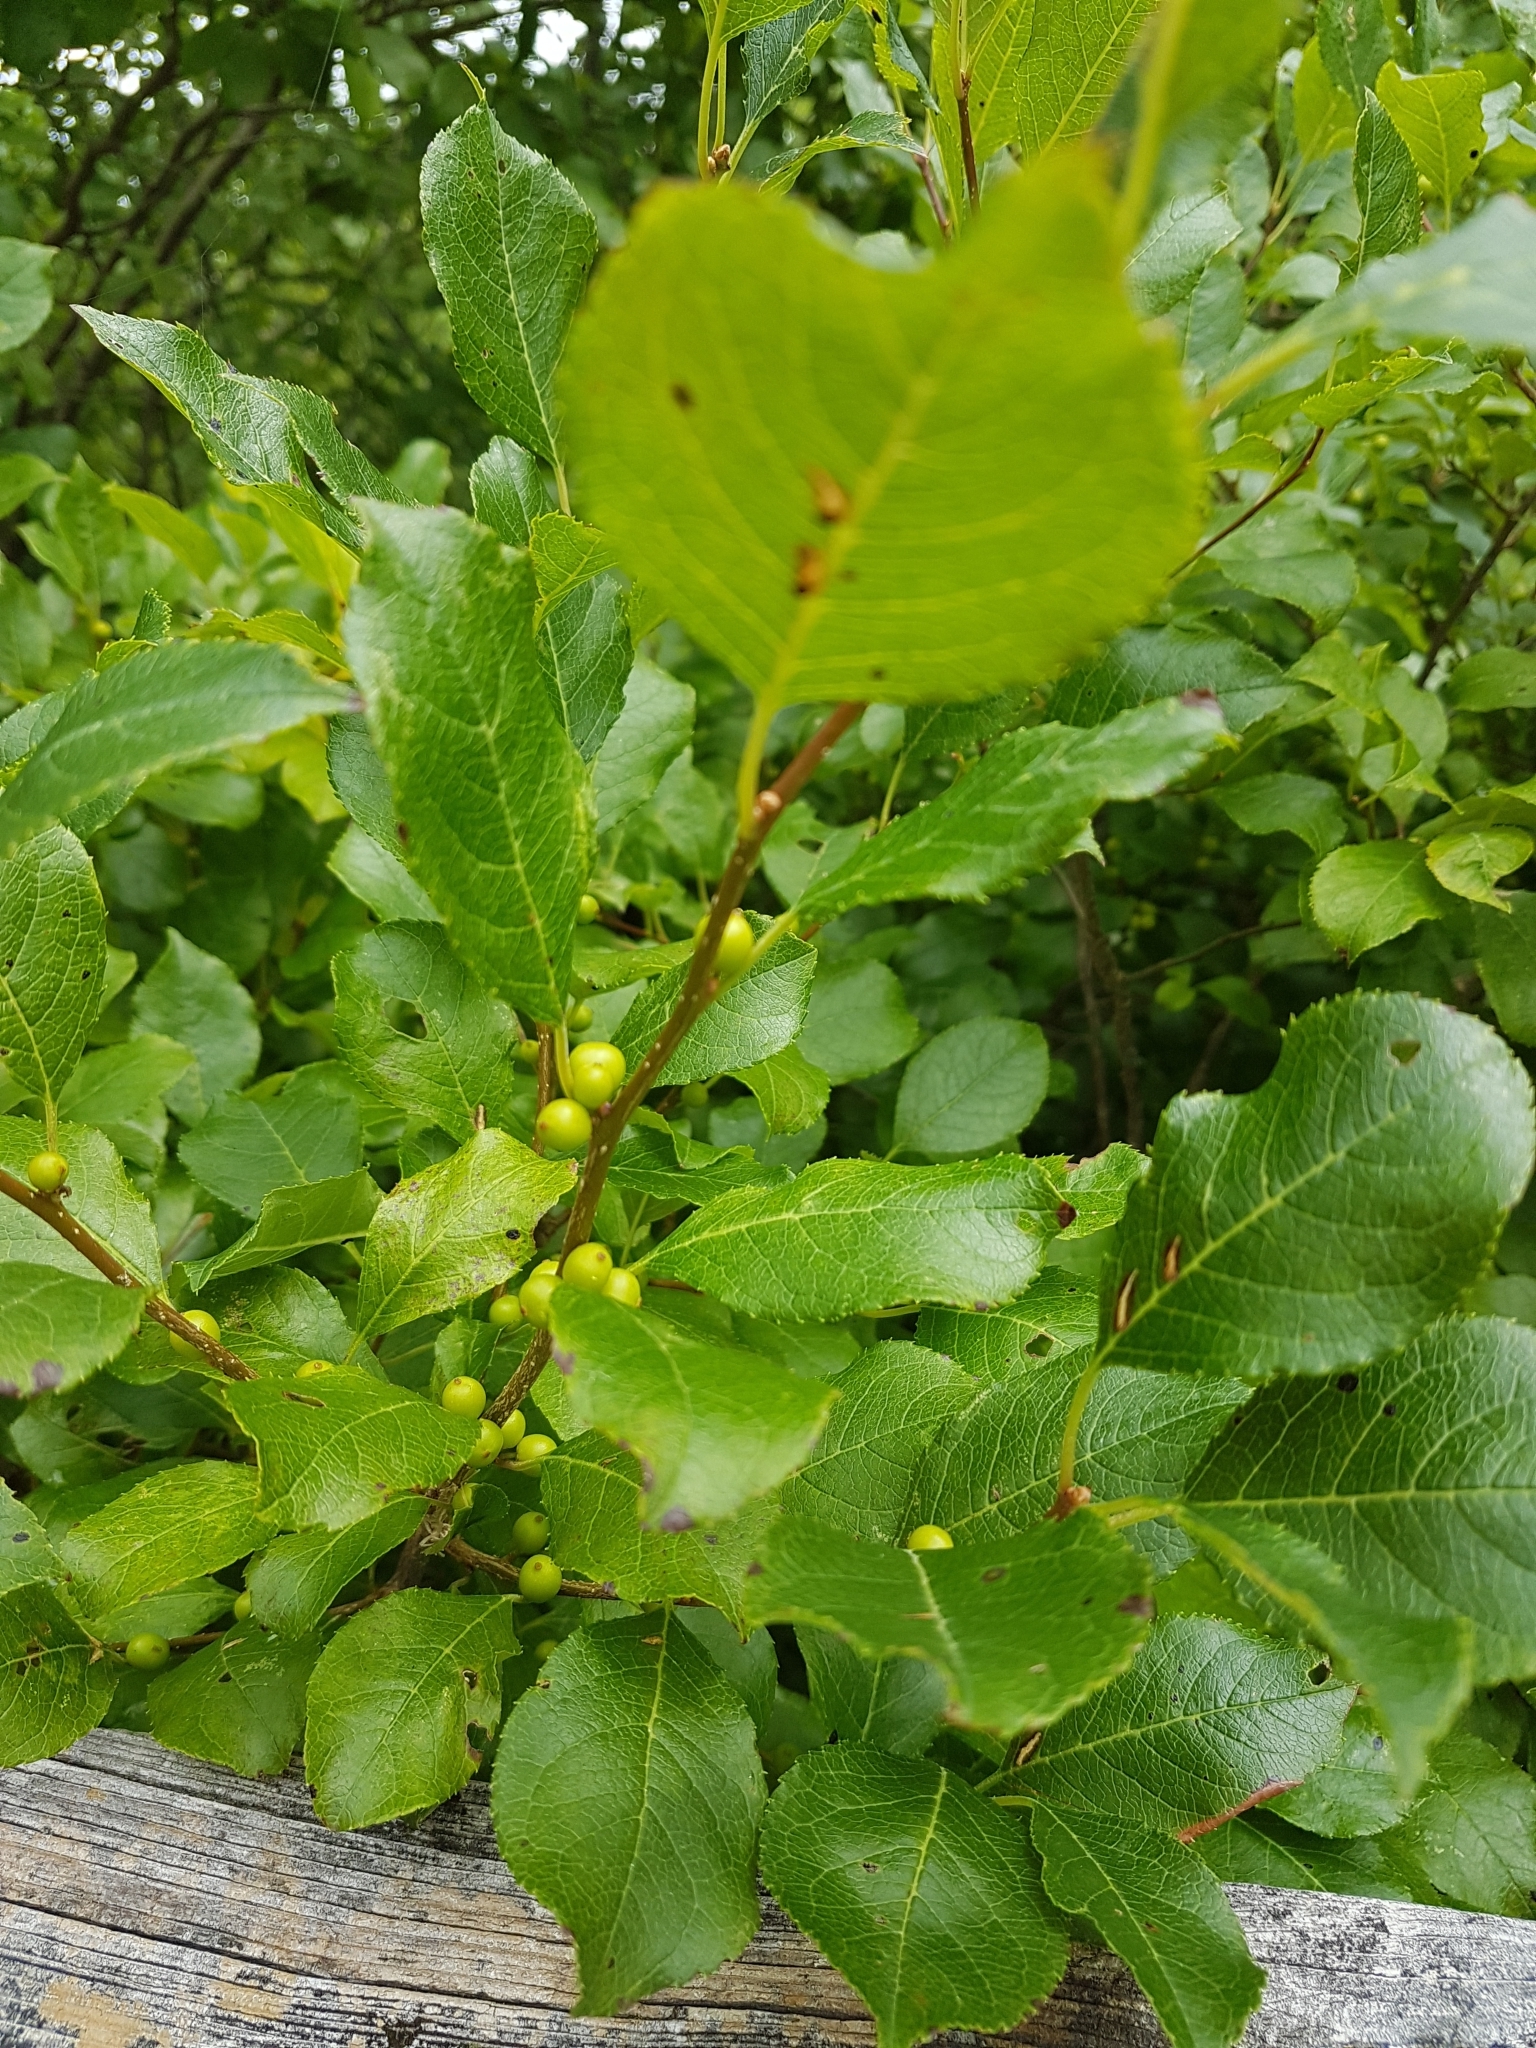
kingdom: Plantae
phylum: Tracheophyta
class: Magnoliopsida
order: Aquifoliales
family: Aquifoliaceae
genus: Ilex
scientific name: Ilex verticillata
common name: Virginia winterberry
